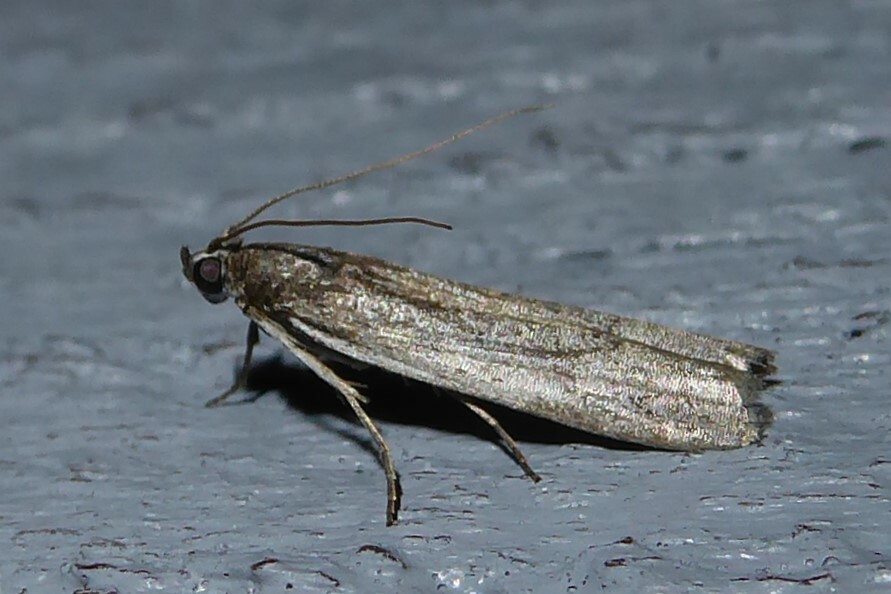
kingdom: Animalia
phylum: Arthropoda
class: Insecta
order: Lepidoptera
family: Pyralidae
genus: Patagoniodes
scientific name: Patagoniodes farinaria
